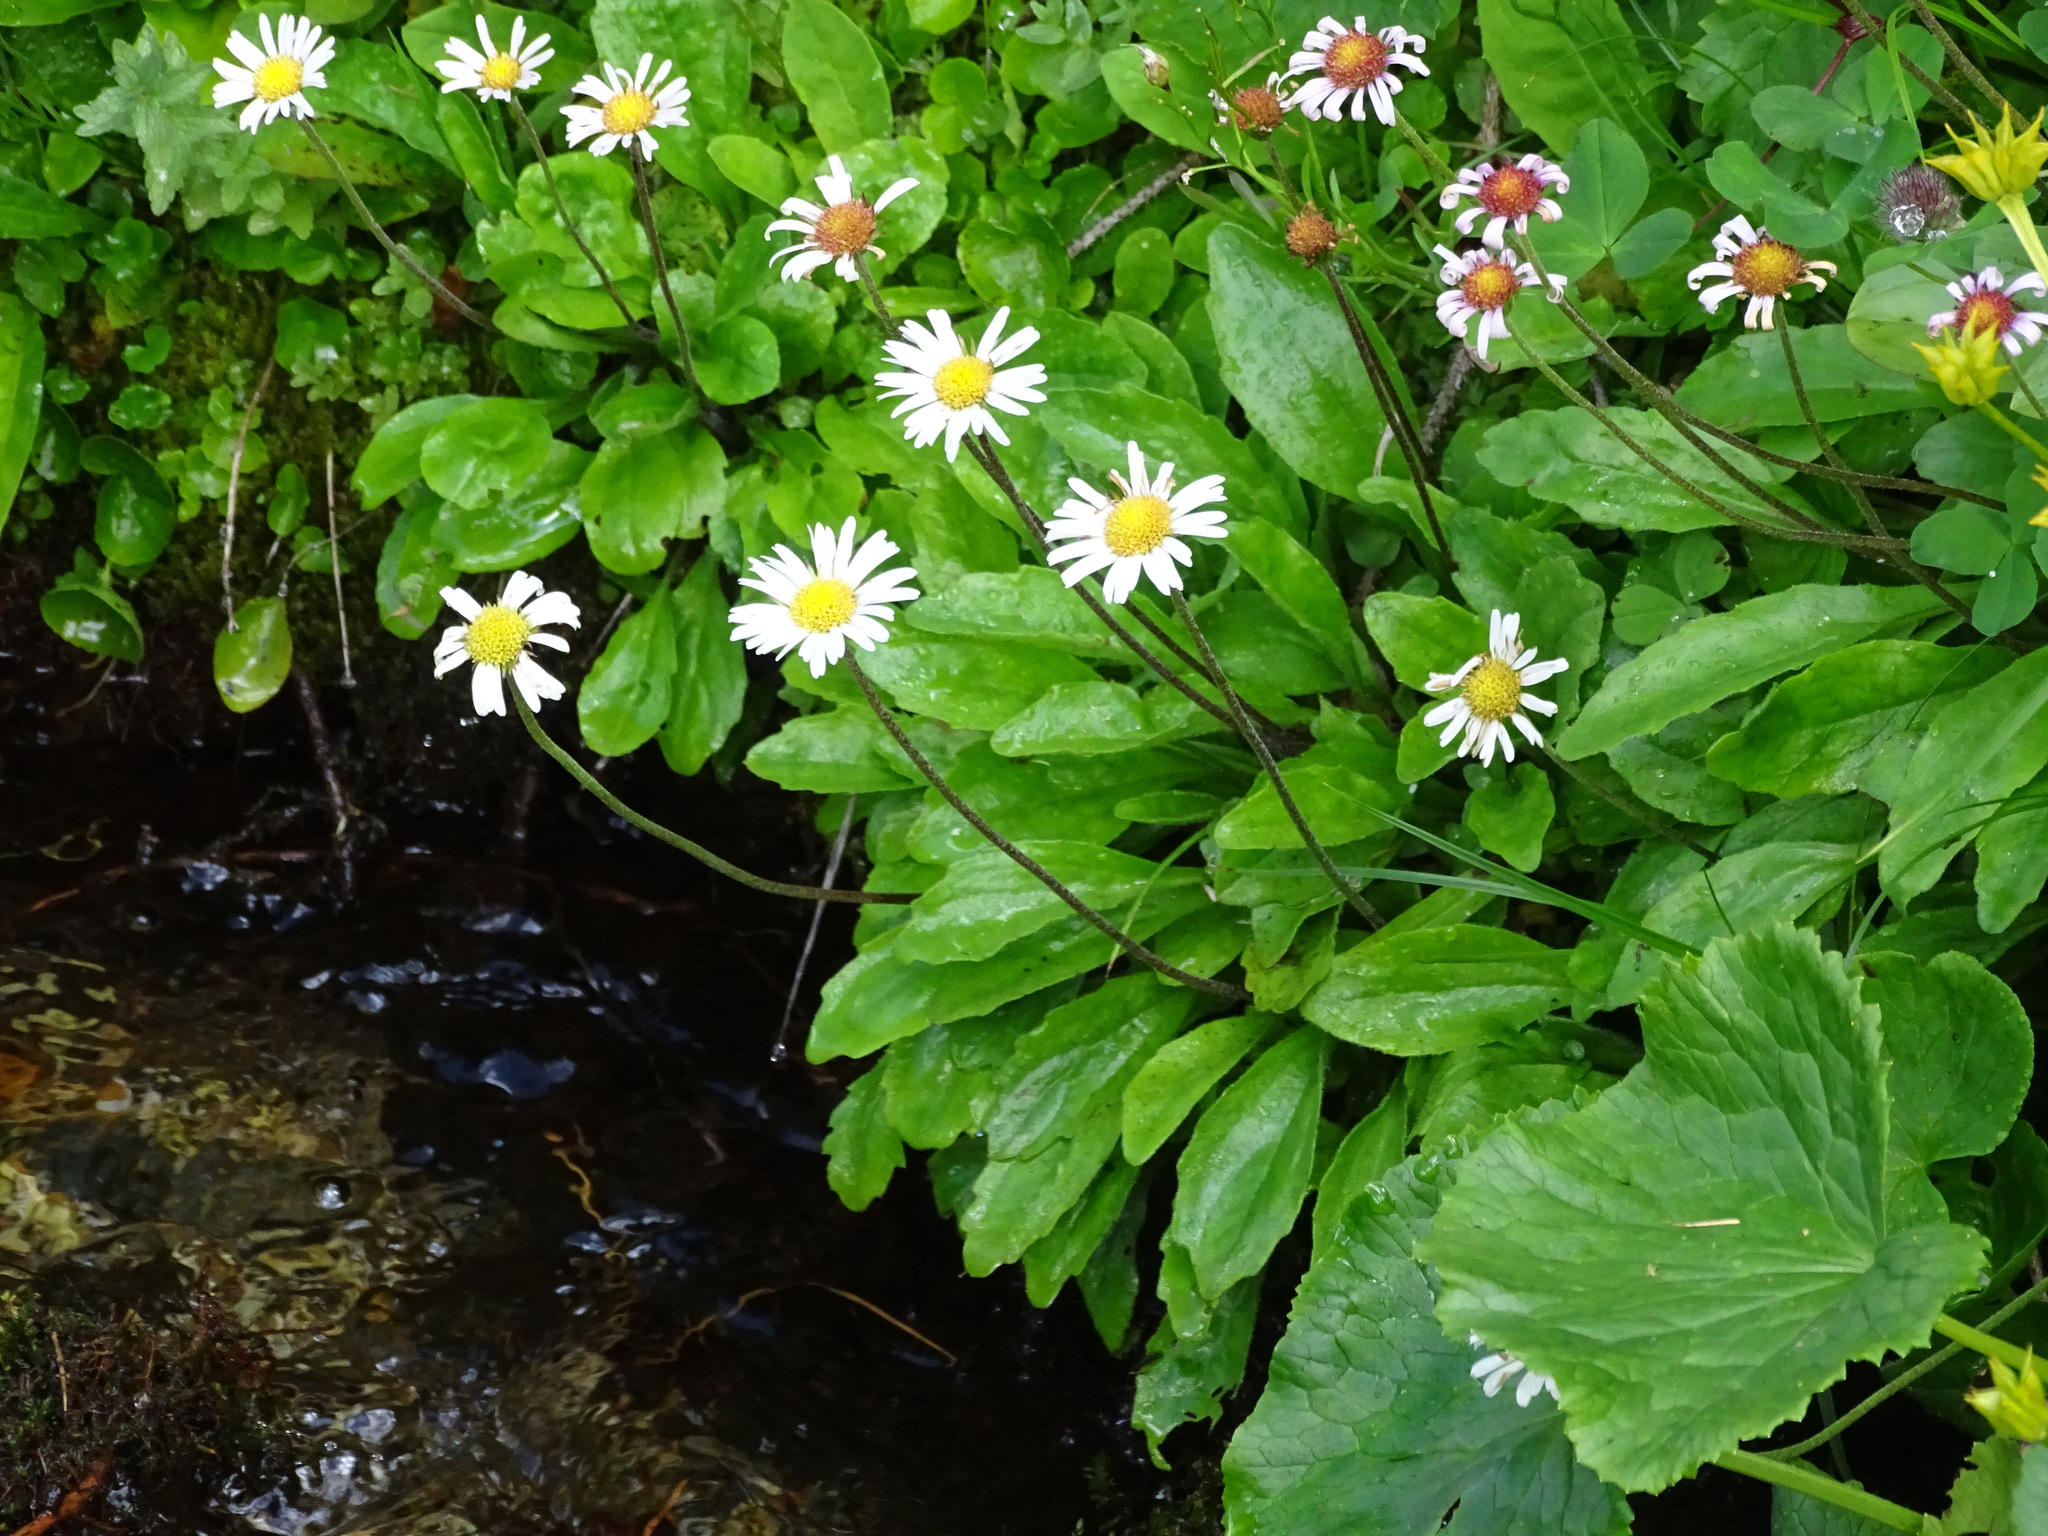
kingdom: Plantae
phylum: Tracheophyta
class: Magnoliopsida
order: Asterales
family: Asteraceae
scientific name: Asteraceae
